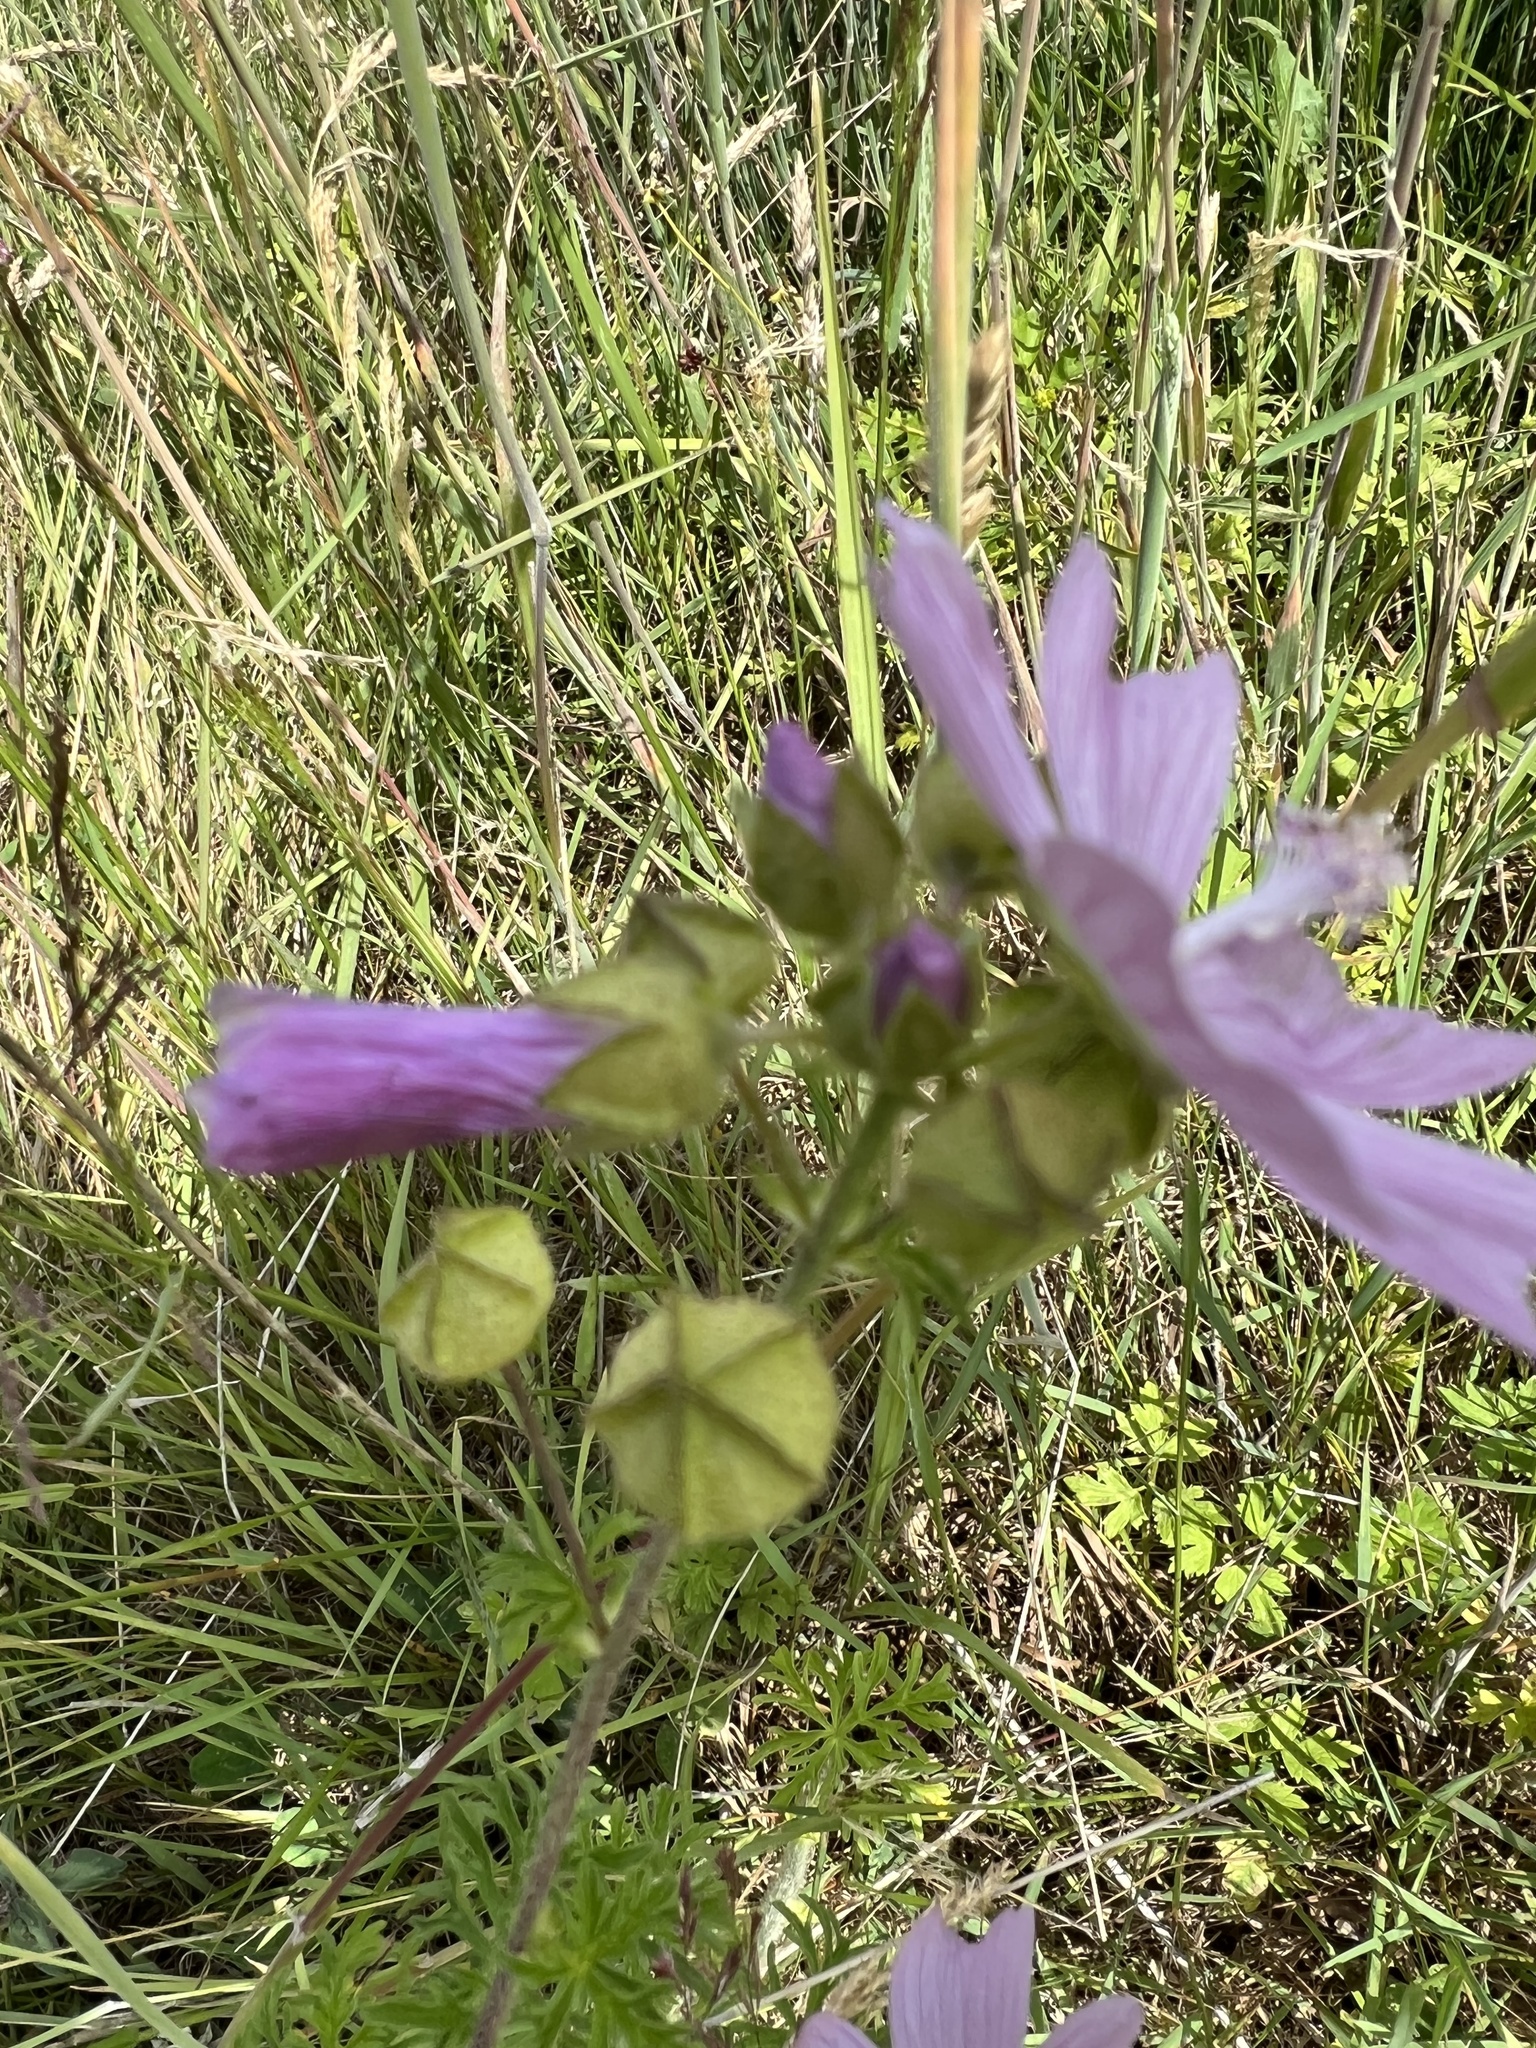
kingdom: Plantae
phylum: Tracheophyta
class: Magnoliopsida
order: Malvales
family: Malvaceae
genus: Malva
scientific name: Malva moschata
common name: Musk mallow
